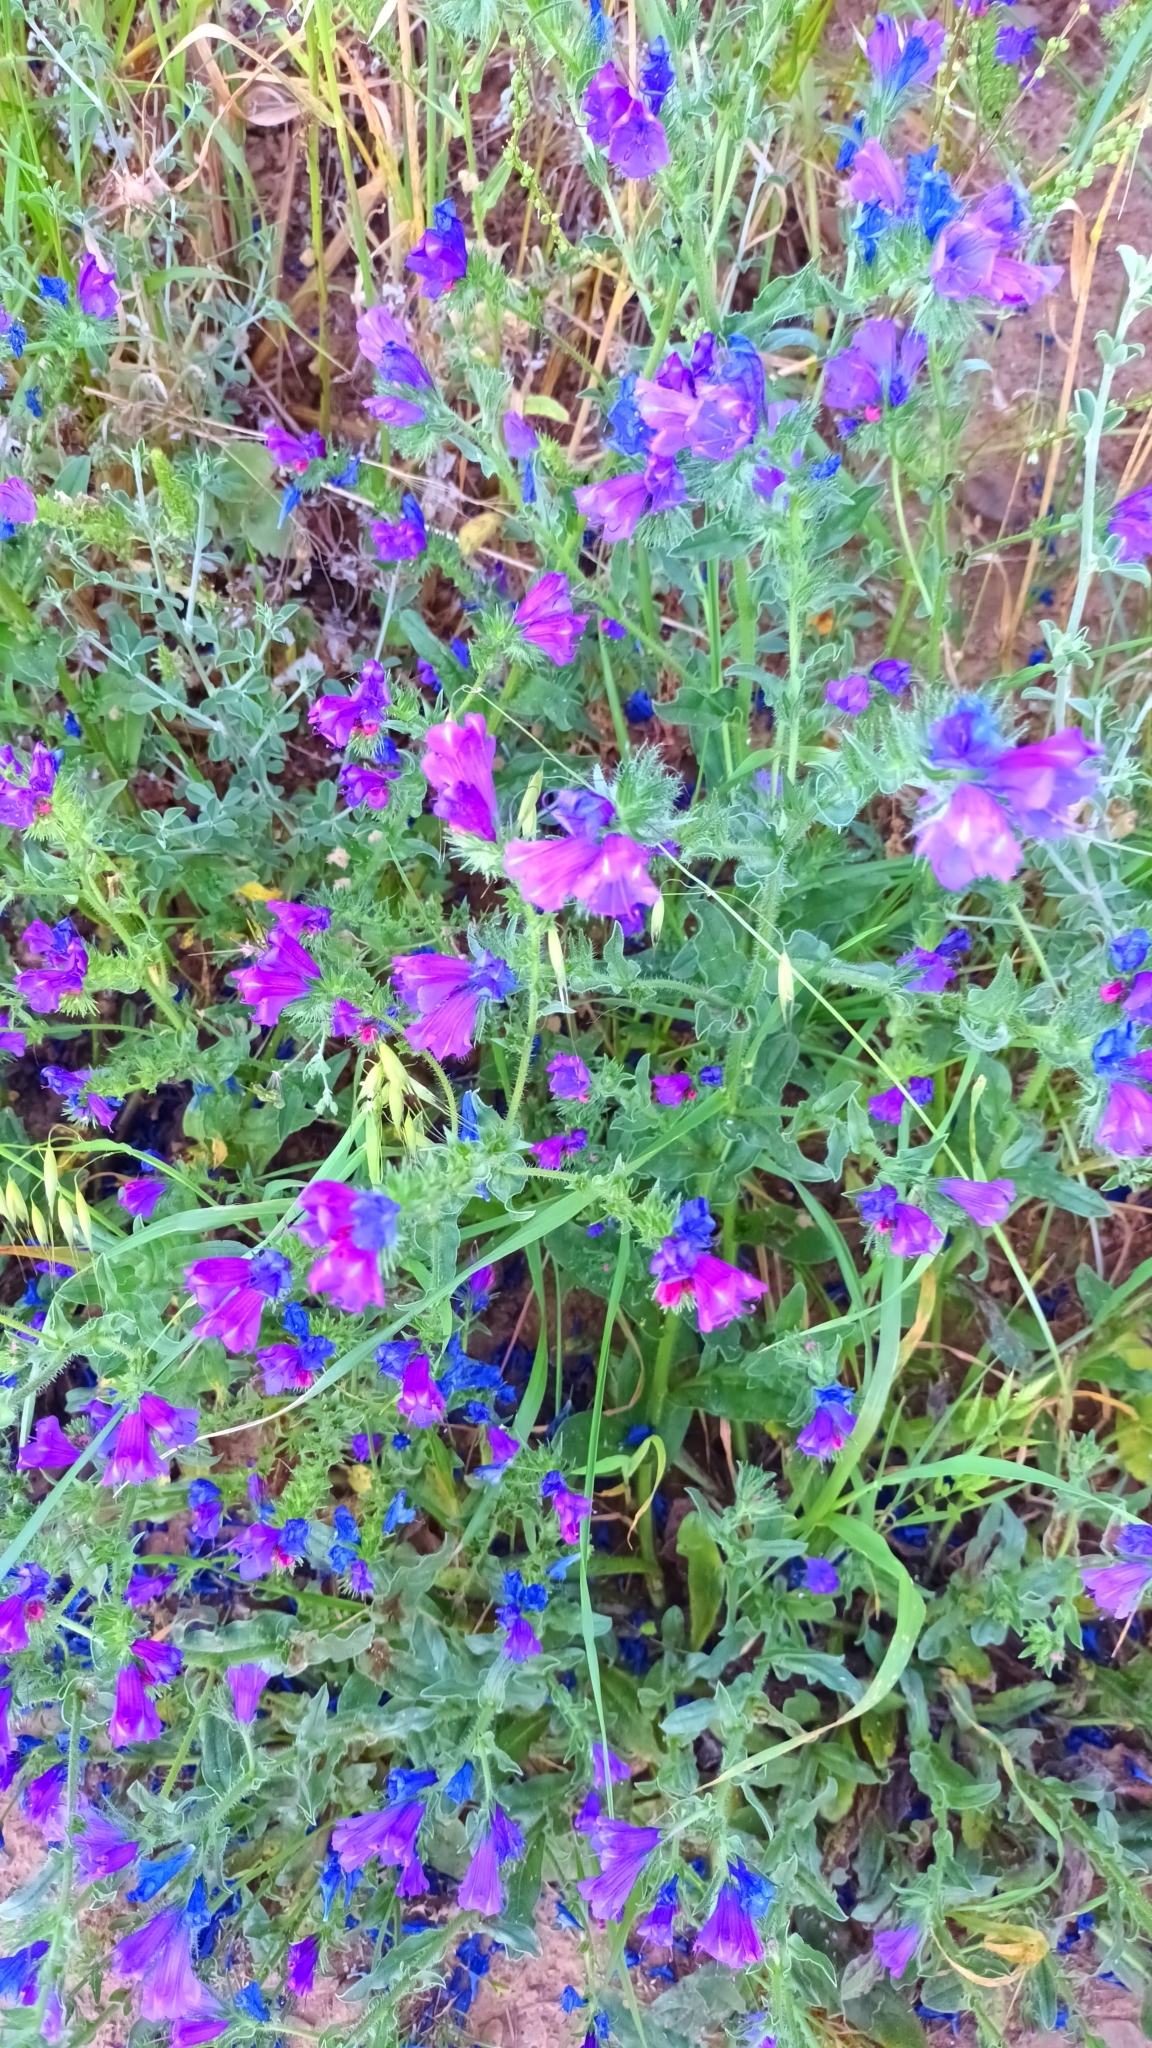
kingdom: Plantae
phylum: Tracheophyta
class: Magnoliopsida
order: Boraginales
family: Boraginaceae
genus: Echium
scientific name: Echium plantagineum
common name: Purple viper's-bugloss
